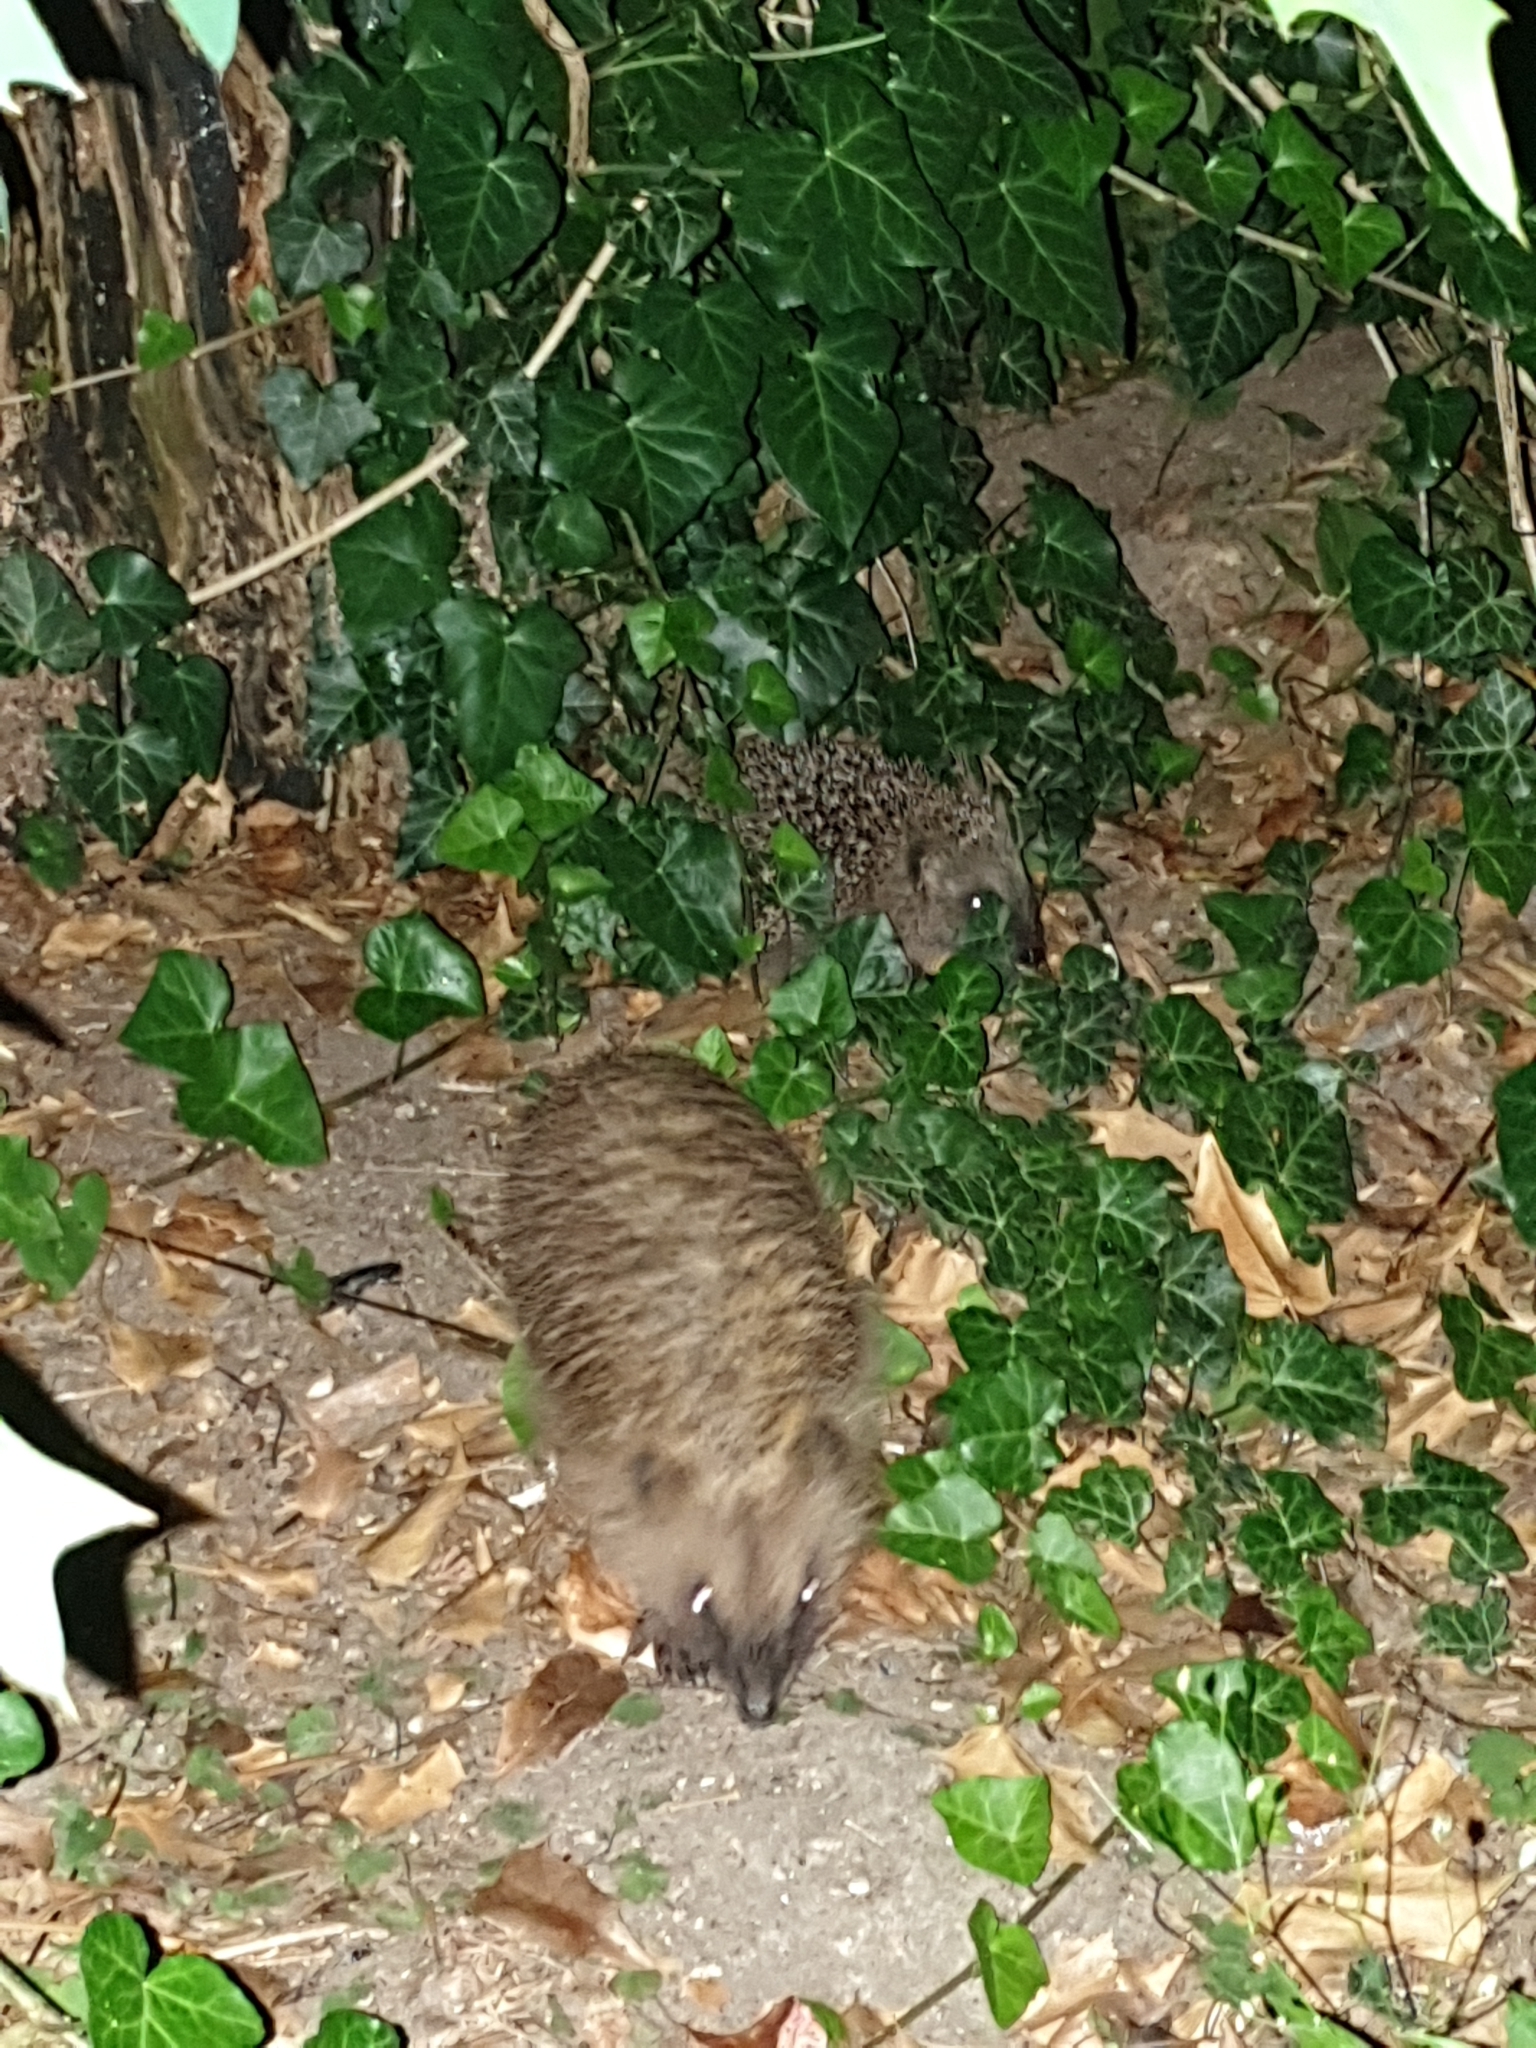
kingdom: Animalia
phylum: Chordata
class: Mammalia
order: Erinaceomorpha
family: Erinaceidae
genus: Erinaceus
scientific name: Erinaceus europaeus
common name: West european hedgehog
